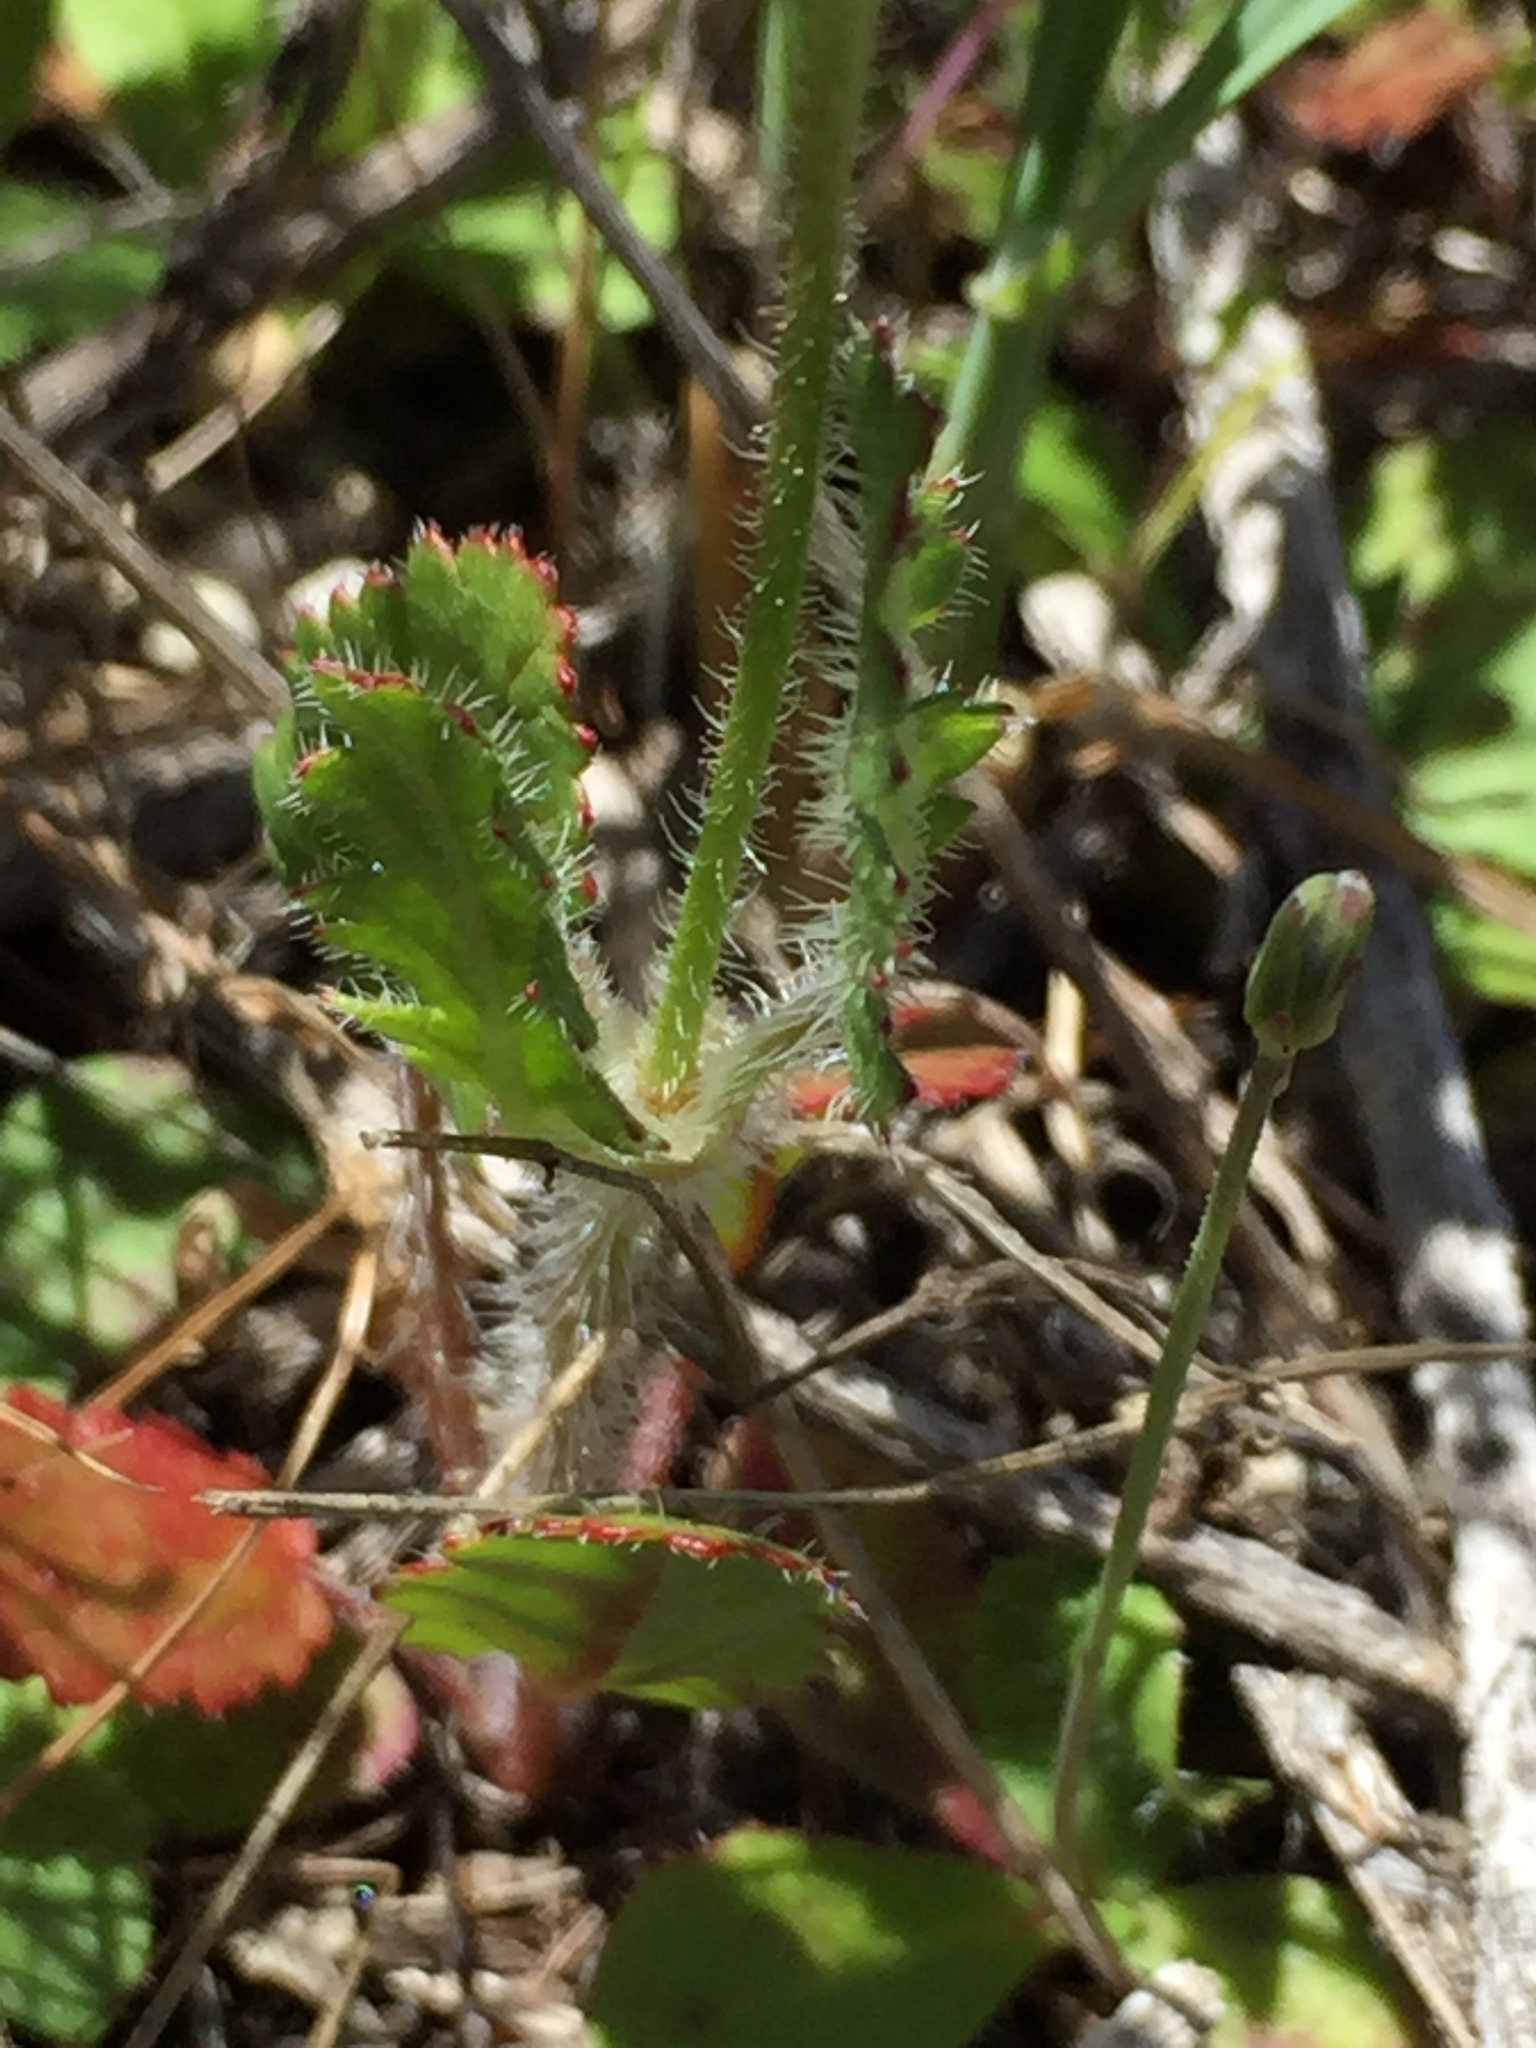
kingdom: Plantae
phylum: Tracheophyta
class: Magnoliopsida
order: Geraniales
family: Geraniaceae
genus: Erodium
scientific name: Erodium botrys
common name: Mediterranean stork's-bill
